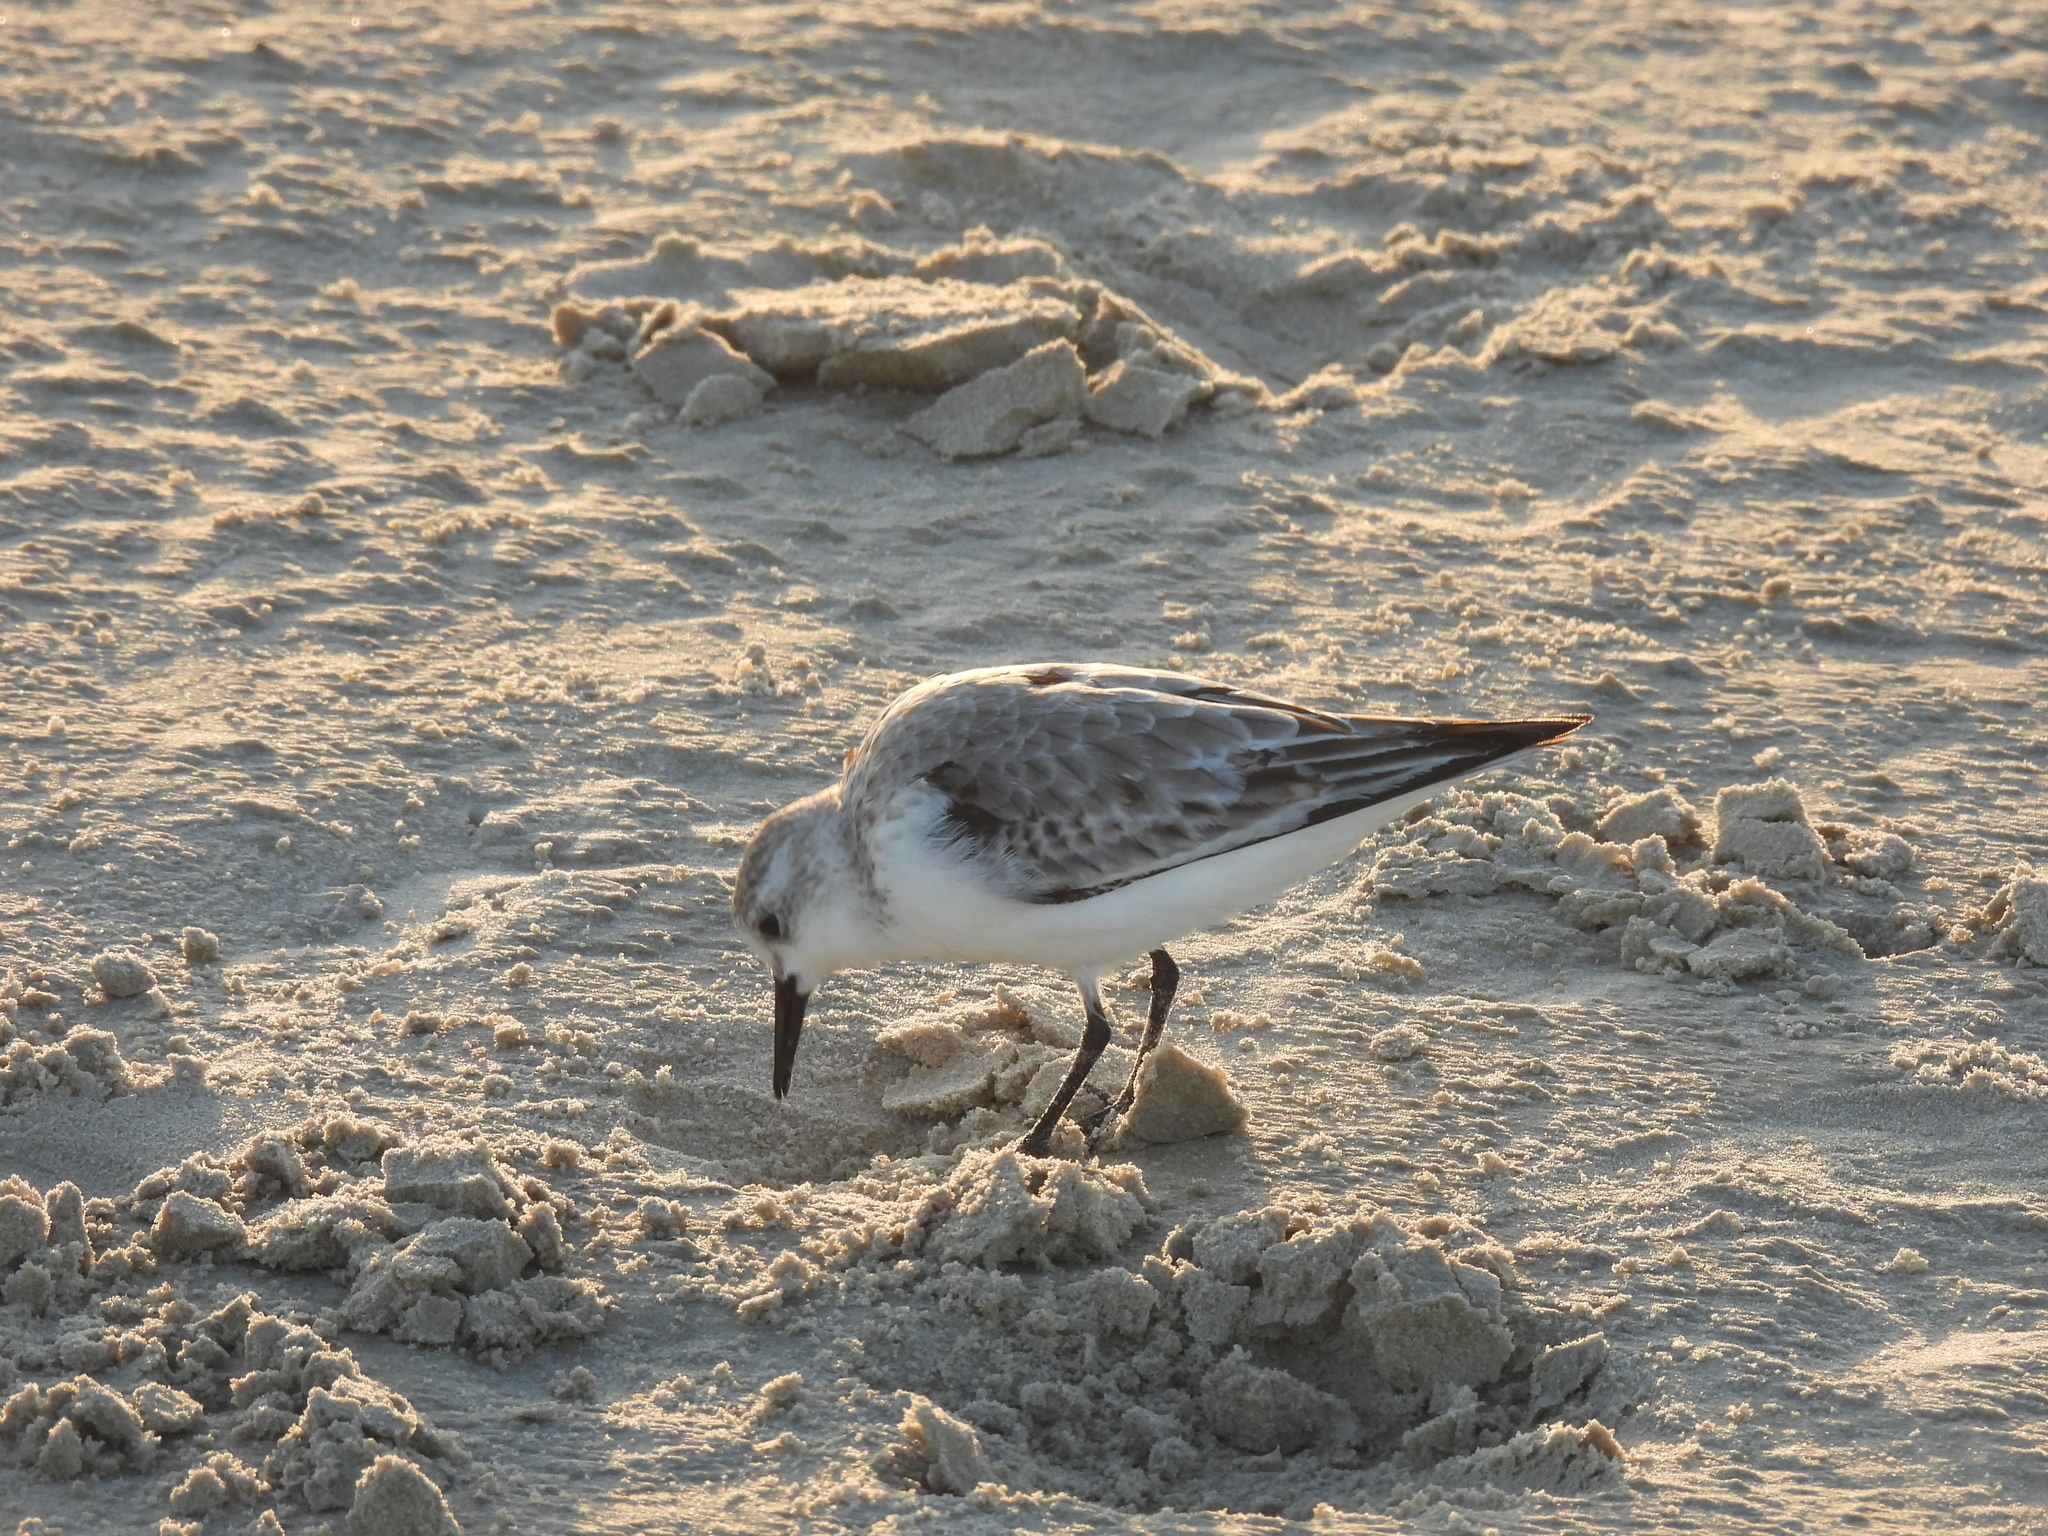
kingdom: Animalia
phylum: Chordata
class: Aves
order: Charadriiformes
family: Scolopacidae
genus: Calidris
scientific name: Calidris alba
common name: Sanderling
